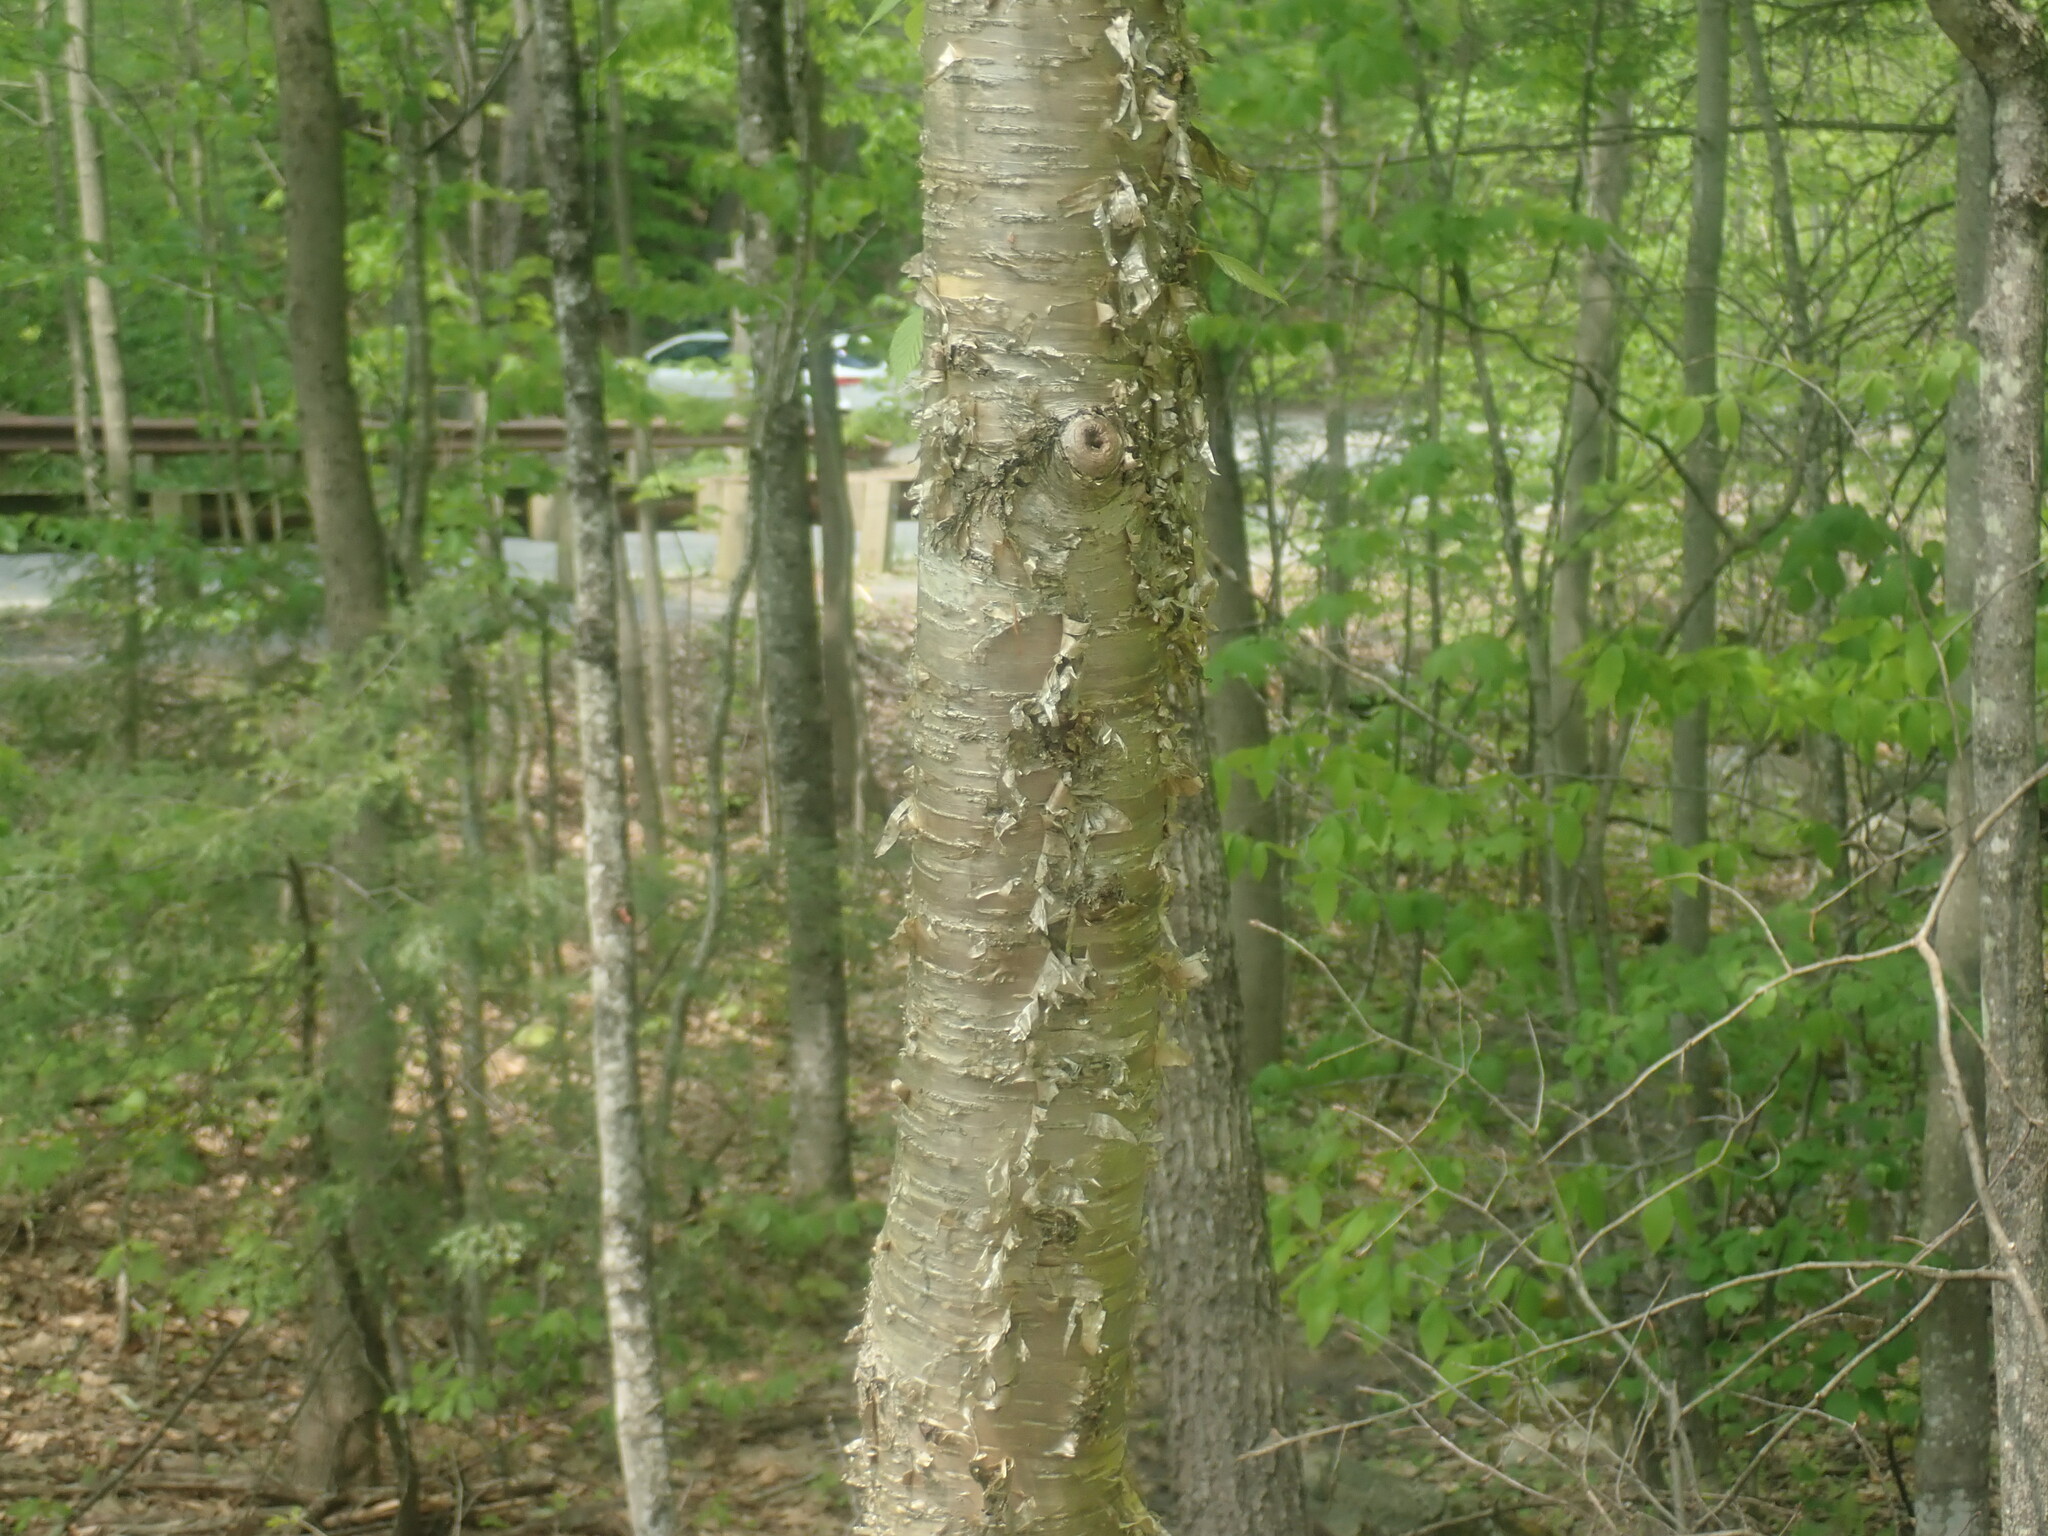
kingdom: Plantae
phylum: Tracheophyta
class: Magnoliopsida
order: Fagales
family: Betulaceae
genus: Betula
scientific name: Betula alleghaniensis
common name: Yellow birch
